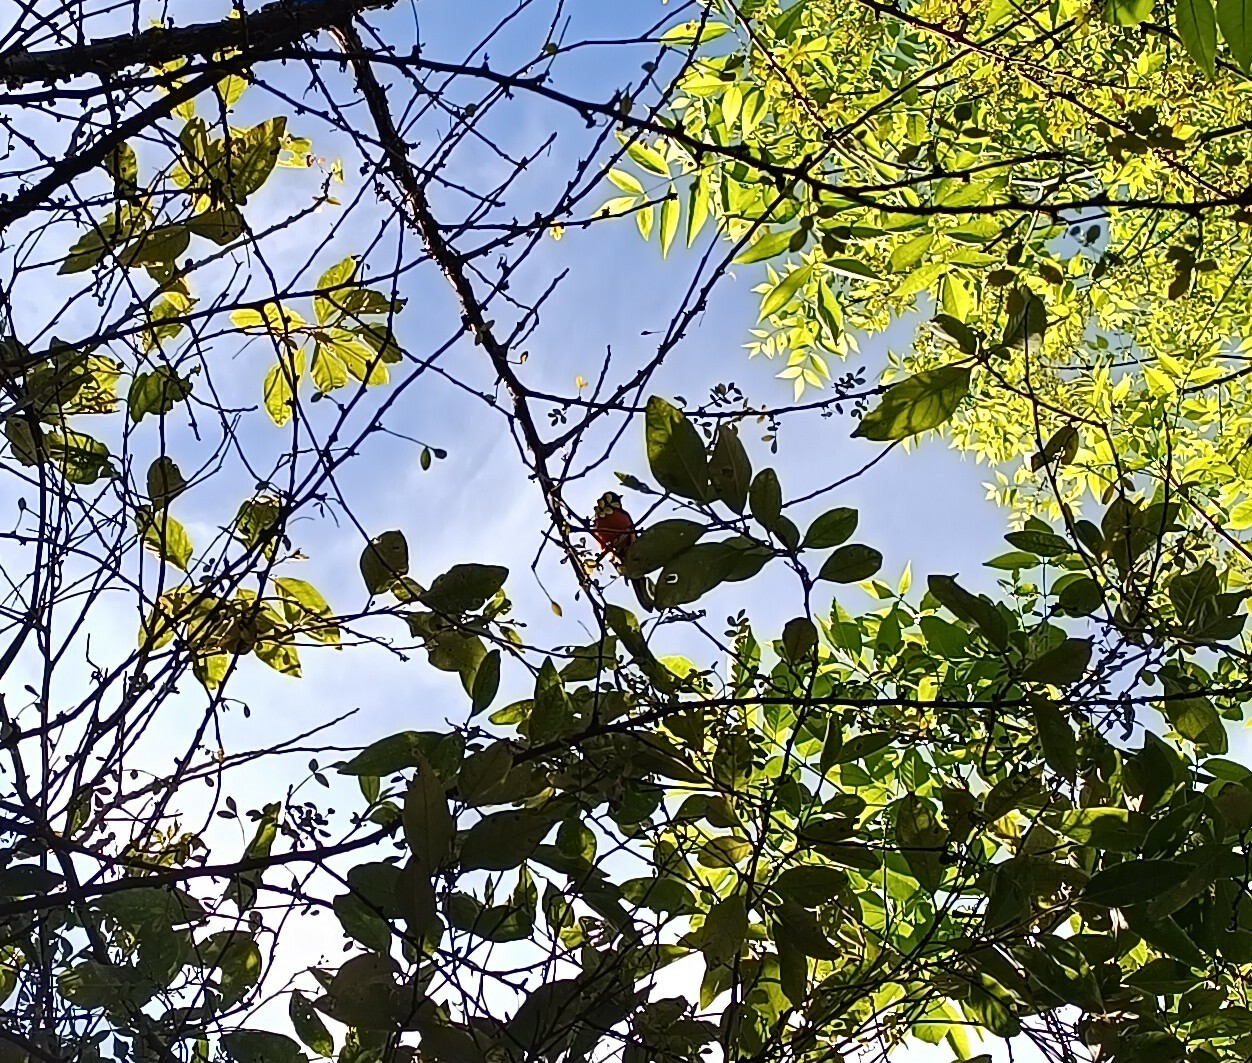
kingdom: Animalia
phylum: Chordata
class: Aves
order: Passeriformes
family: Parulidae
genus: Myioborus
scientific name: Myioborus pictus
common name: Painted whitestart
